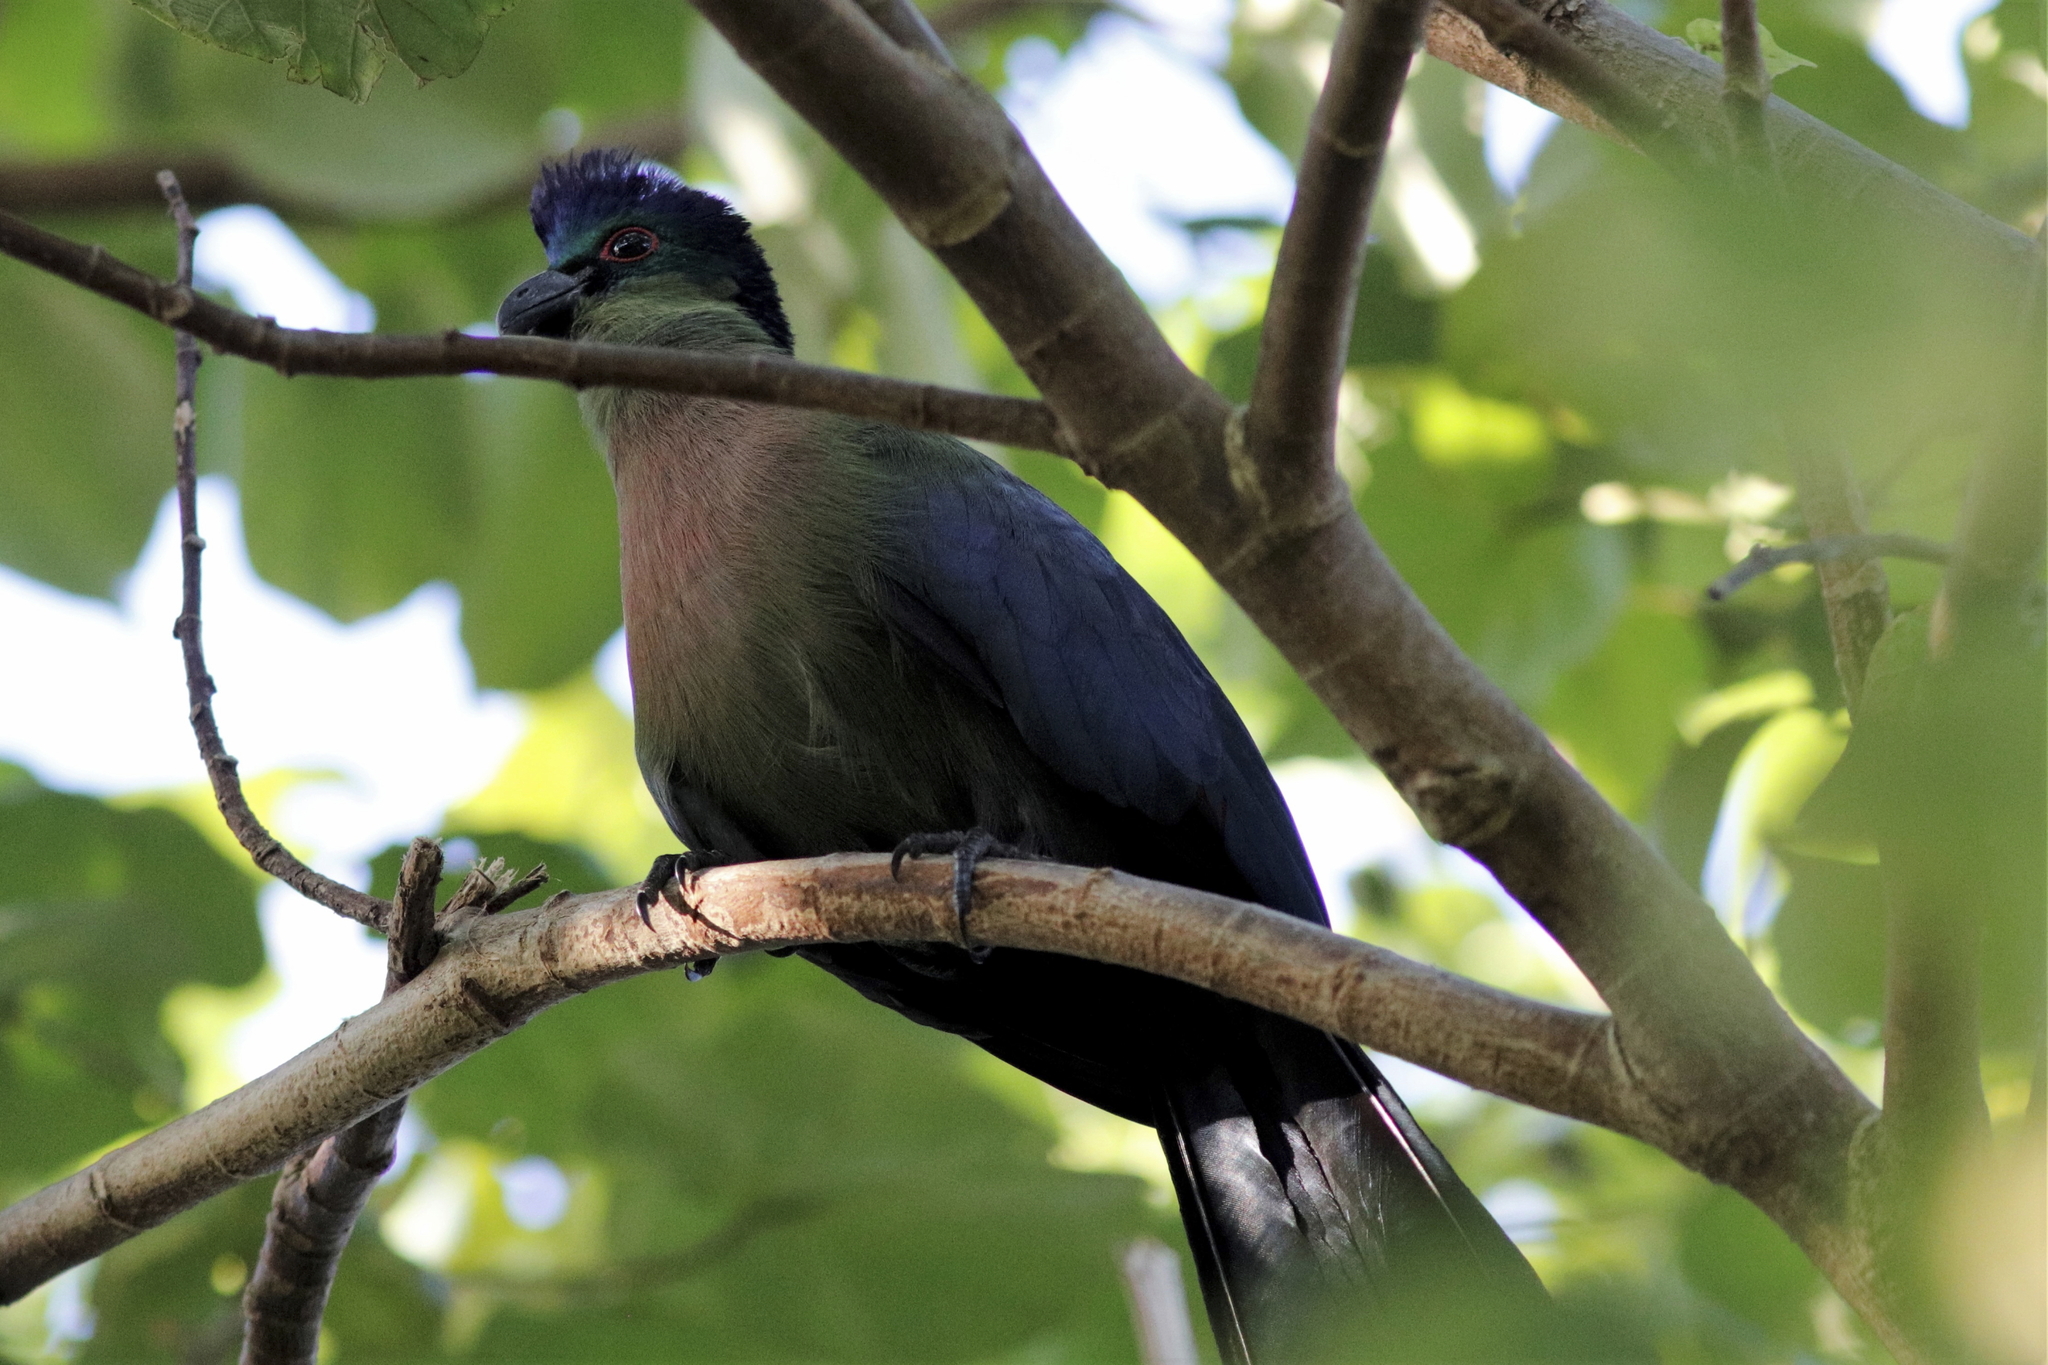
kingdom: Animalia
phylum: Chordata
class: Aves
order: Musophagiformes
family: Musophagidae
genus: Tauraco
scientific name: Tauraco porphyreolophus
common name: Purple-crested turaco
